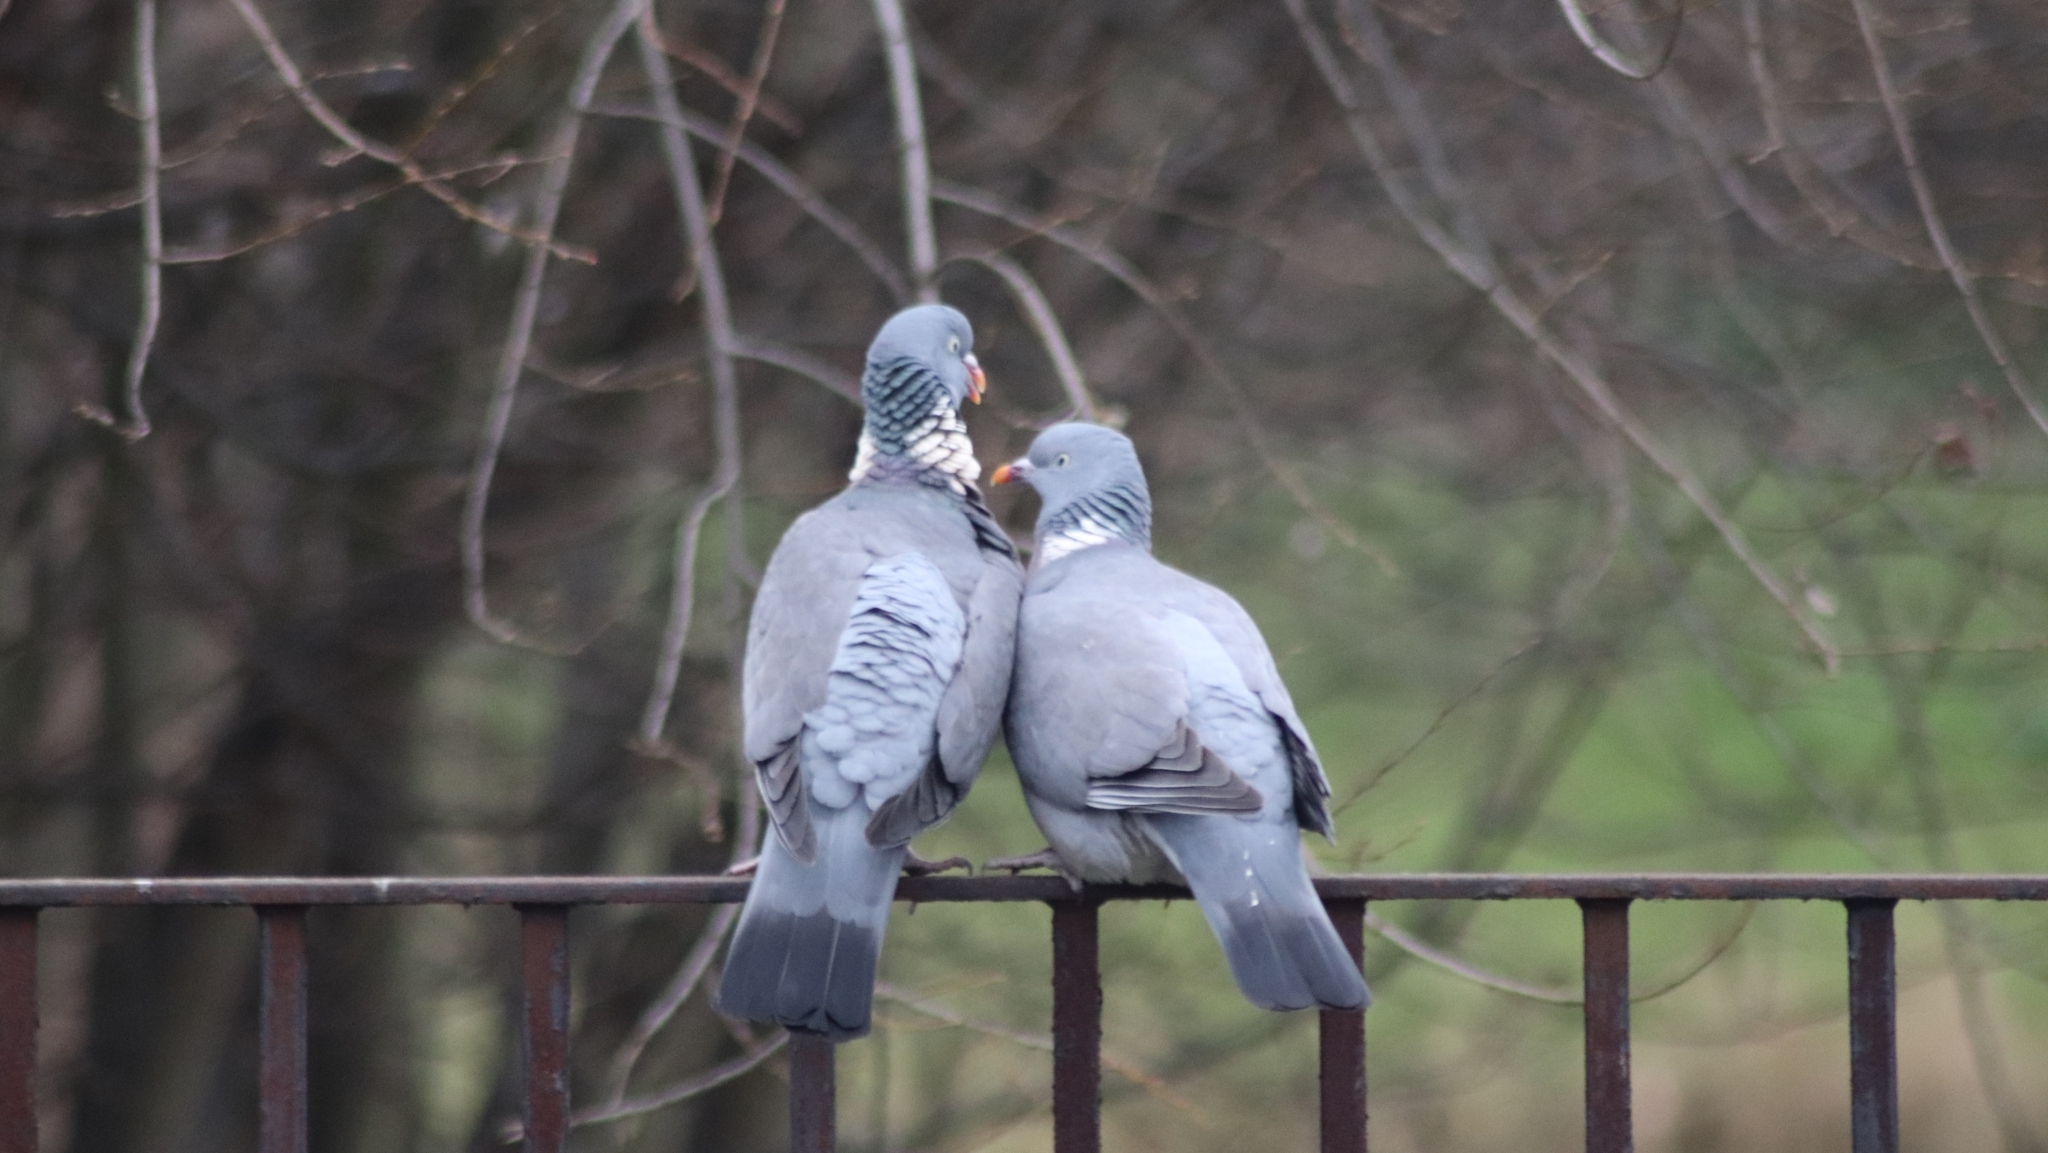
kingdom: Animalia
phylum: Chordata
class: Aves
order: Columbiformes
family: Columbidae
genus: Columba
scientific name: Columba palumbus
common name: Common wood pigeon
